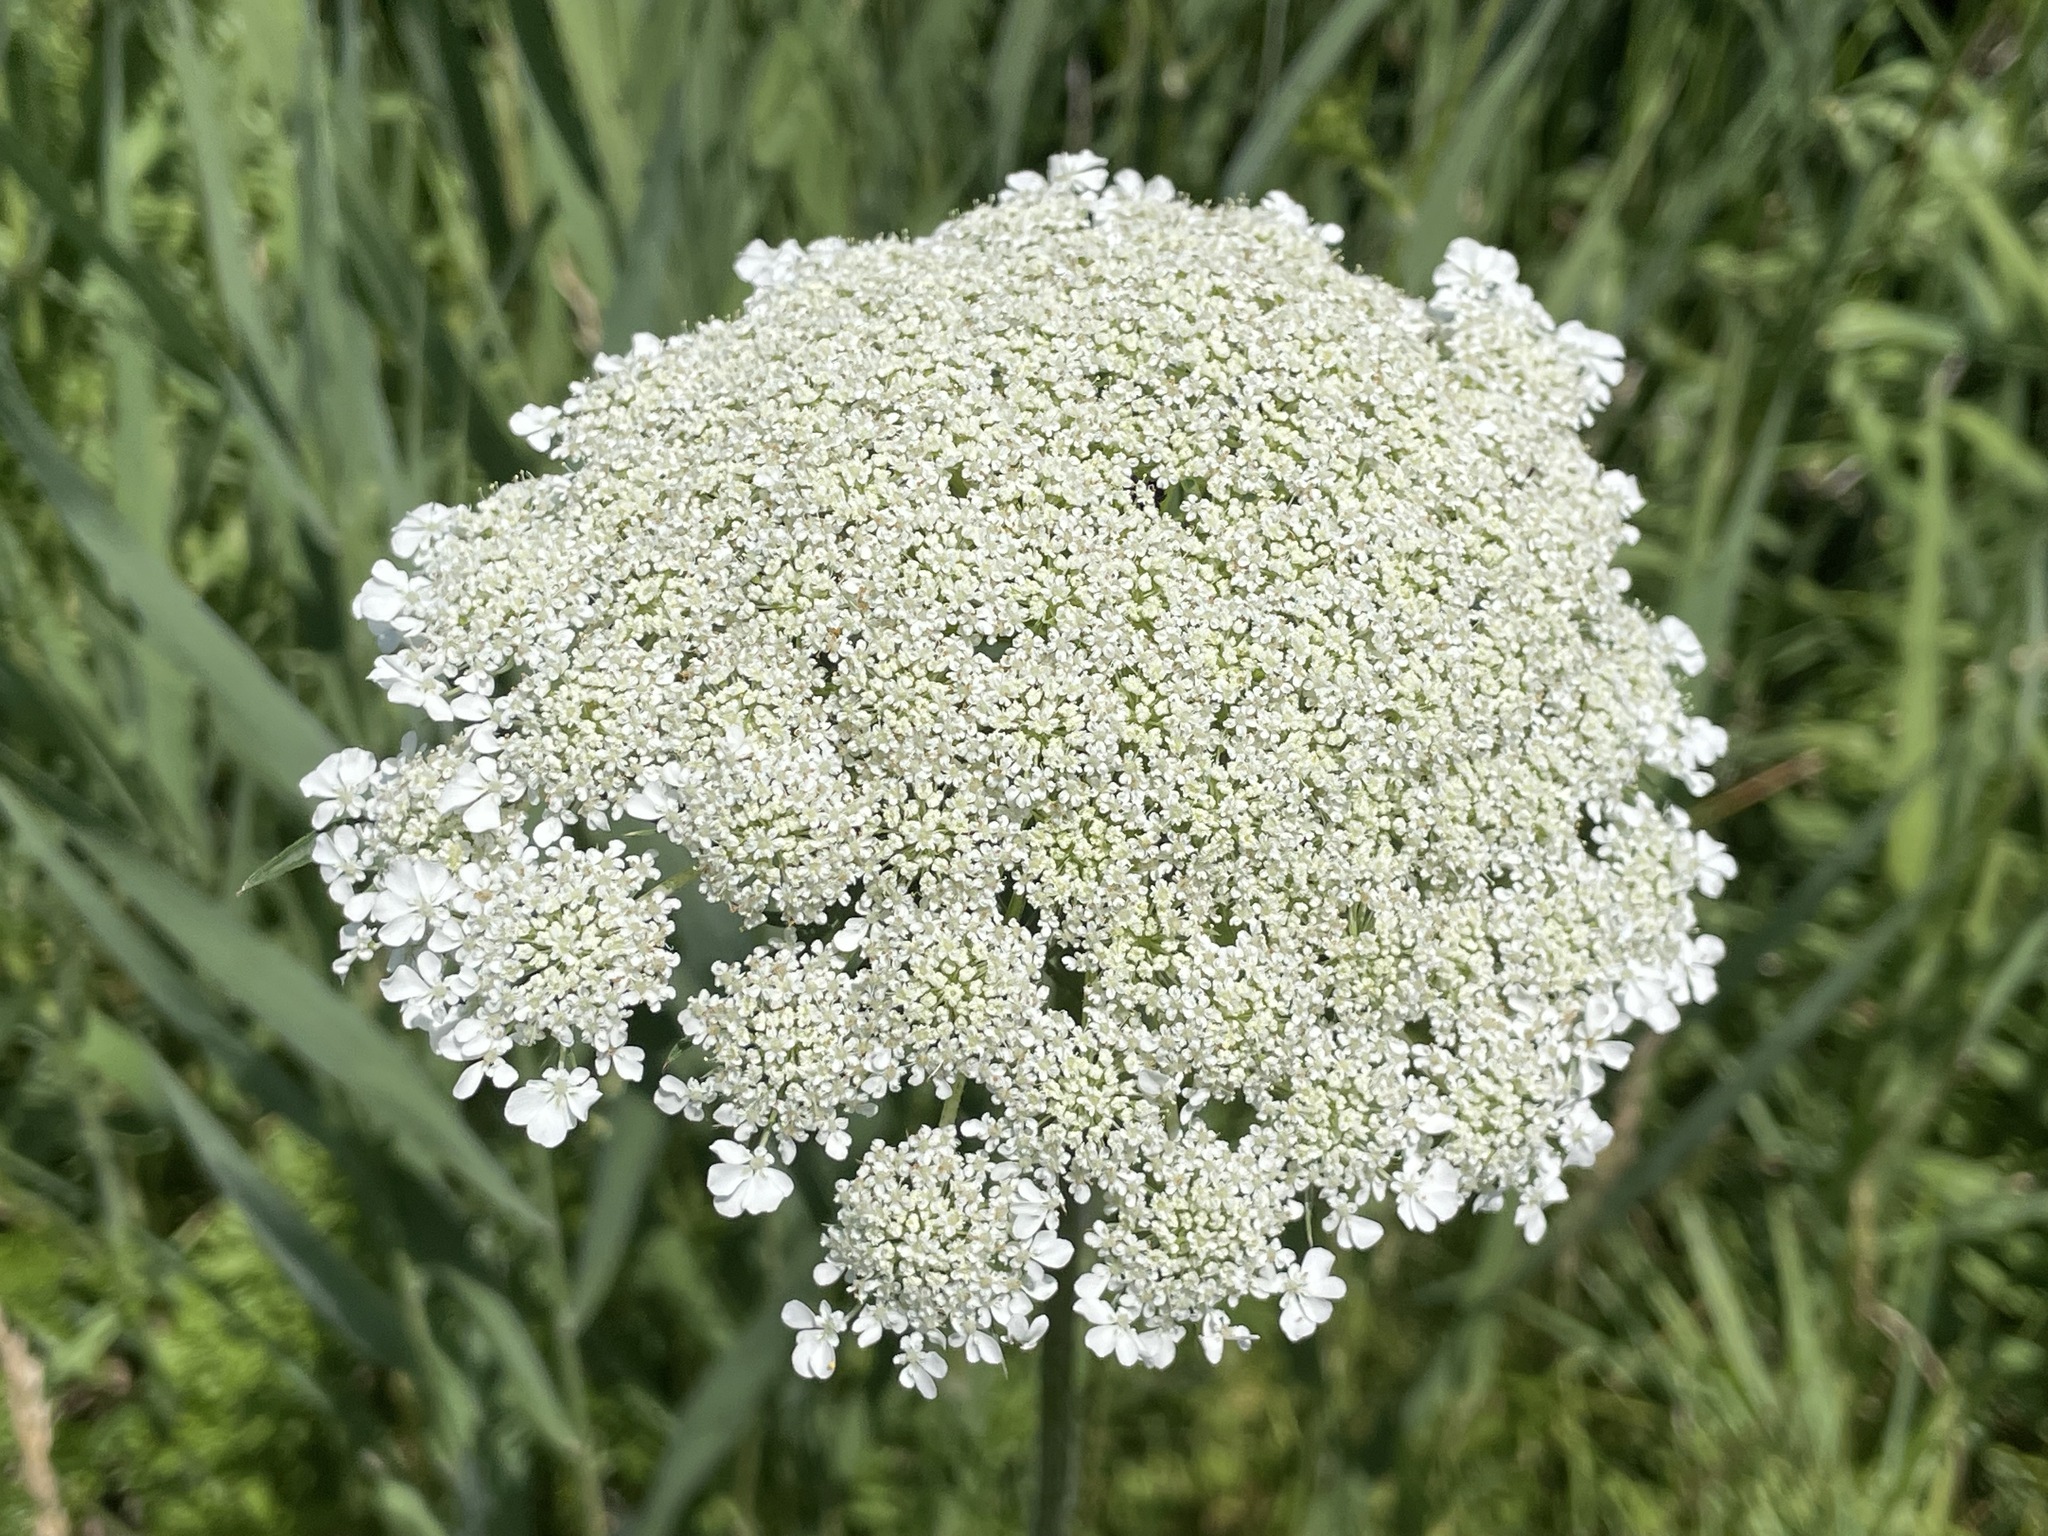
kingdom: Plantae
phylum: Tracheophyta
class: Magnoliopsida
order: Apiales
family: Apiaceae
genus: Daucus
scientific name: Daucus carota
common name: Wild carrot
